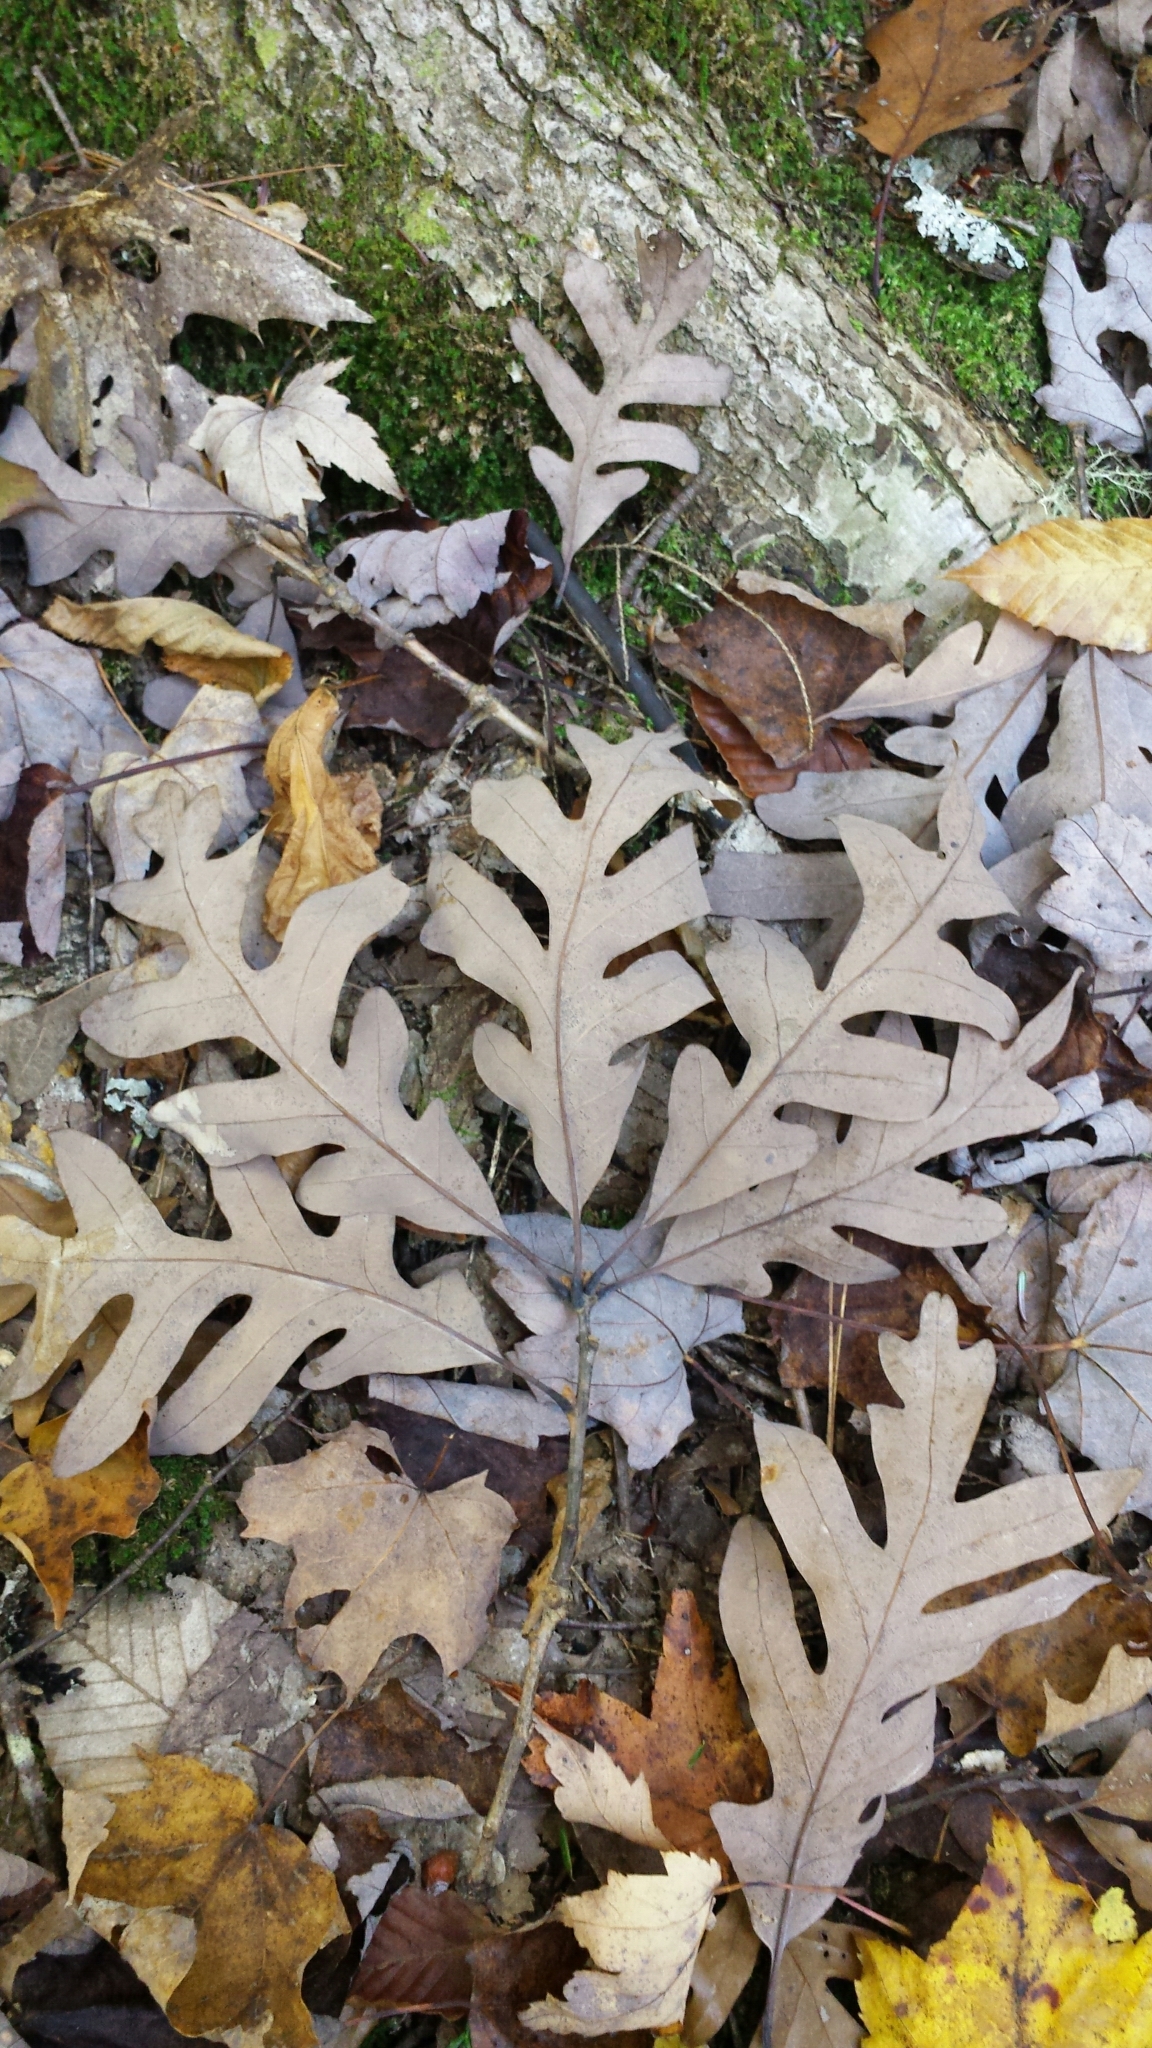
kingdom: Plantae
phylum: Tracheophyta
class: Magnoliopsida
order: Fagales
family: Fagaceae
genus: Quercus
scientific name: Quercus alba
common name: White oak
